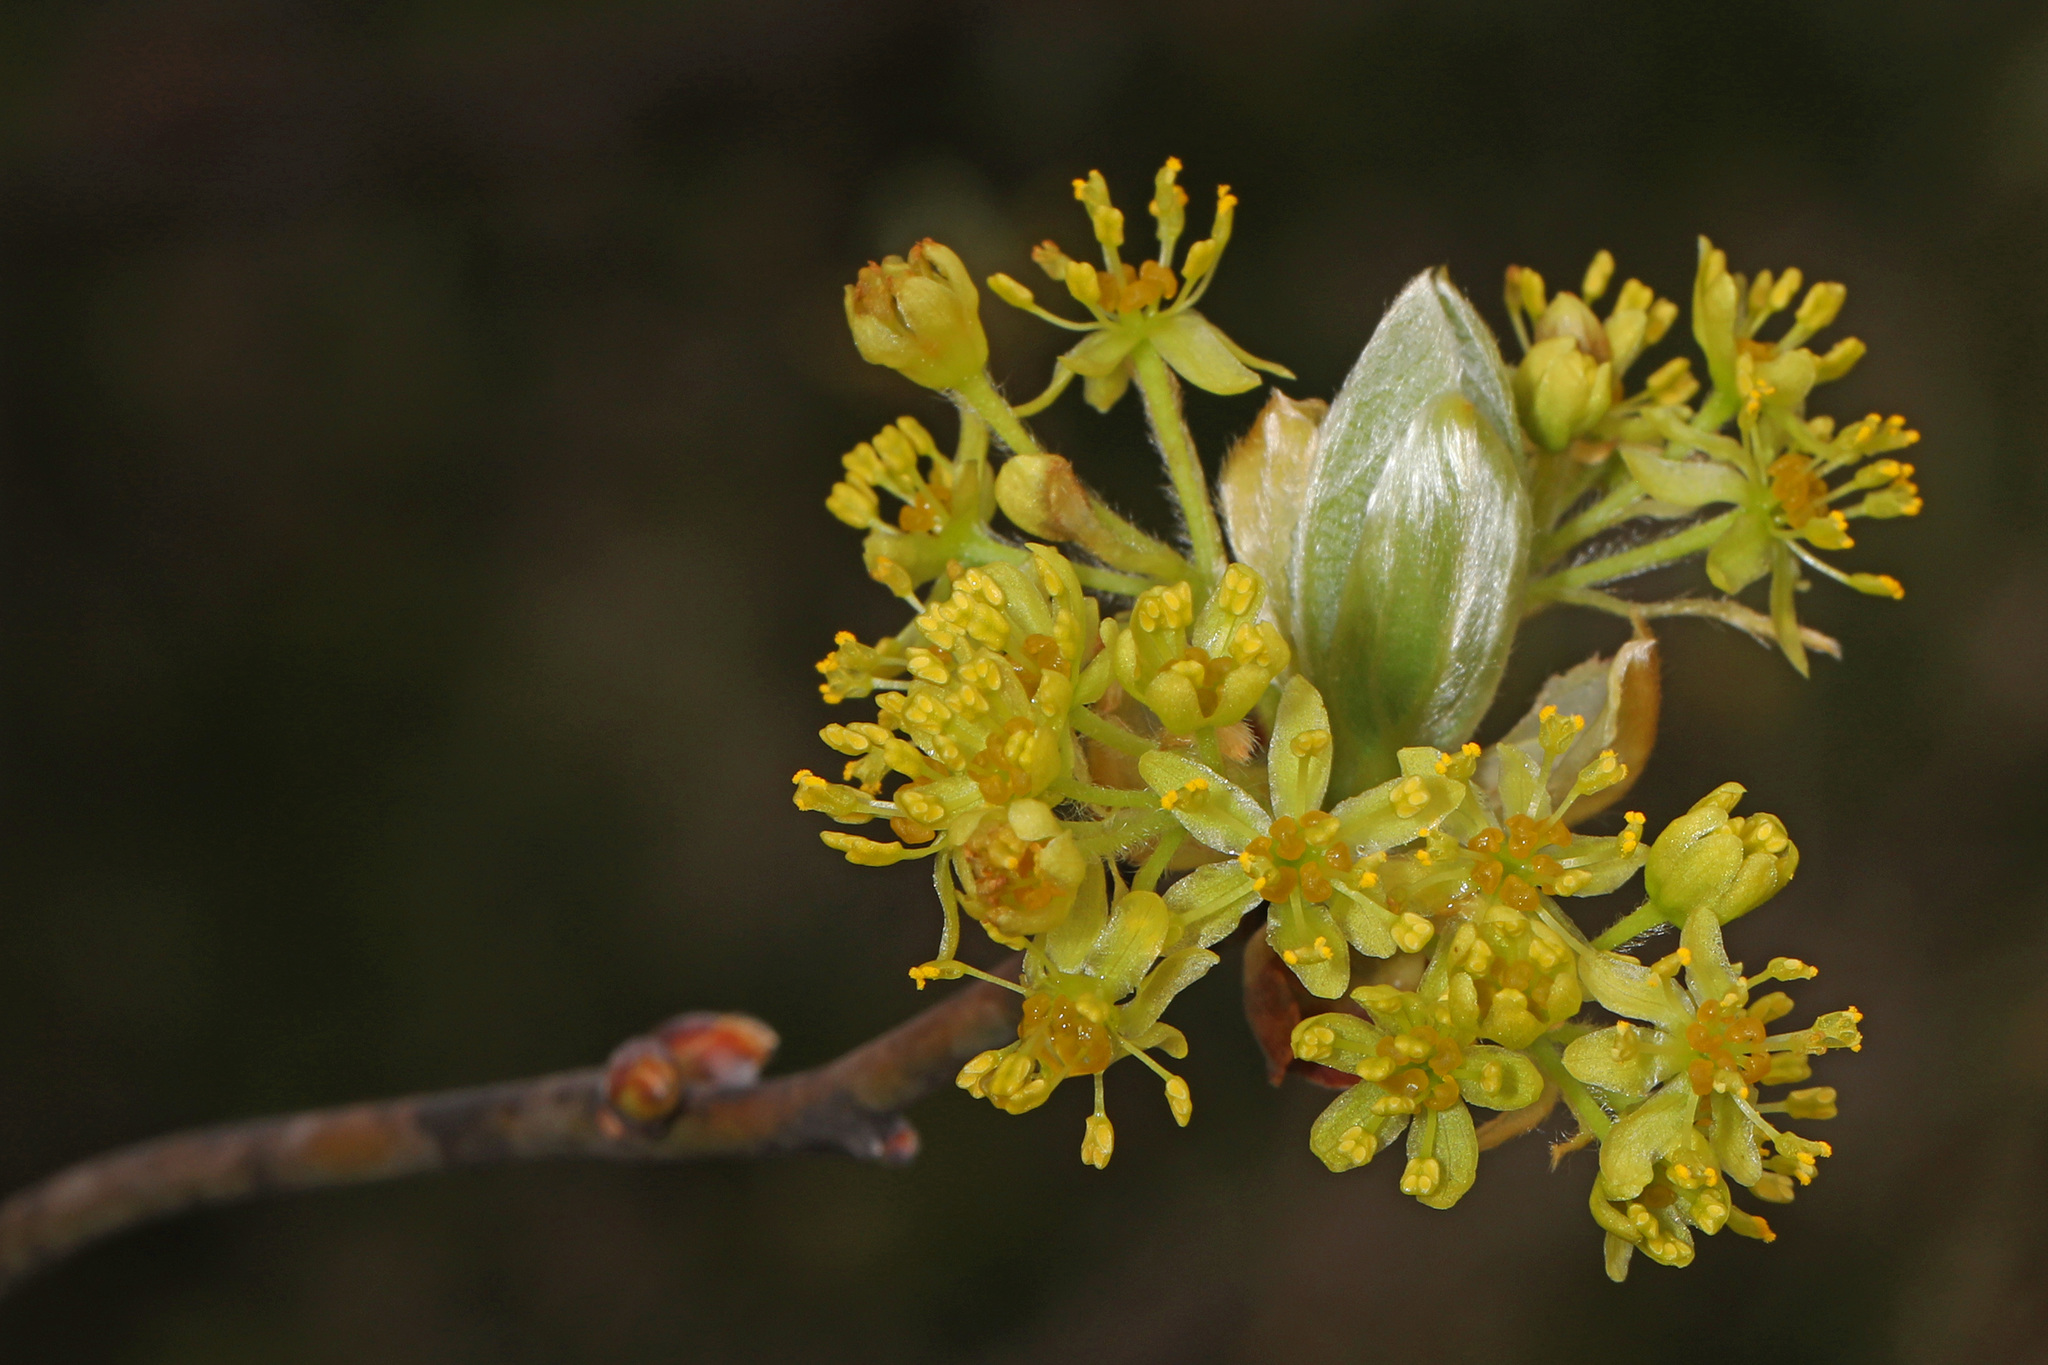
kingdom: Plantae
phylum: Tracheophyta
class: Magnoliopsida
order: Laurales
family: Lauraceae
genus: Sassafras
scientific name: Sassafras albidum
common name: Sassafras
